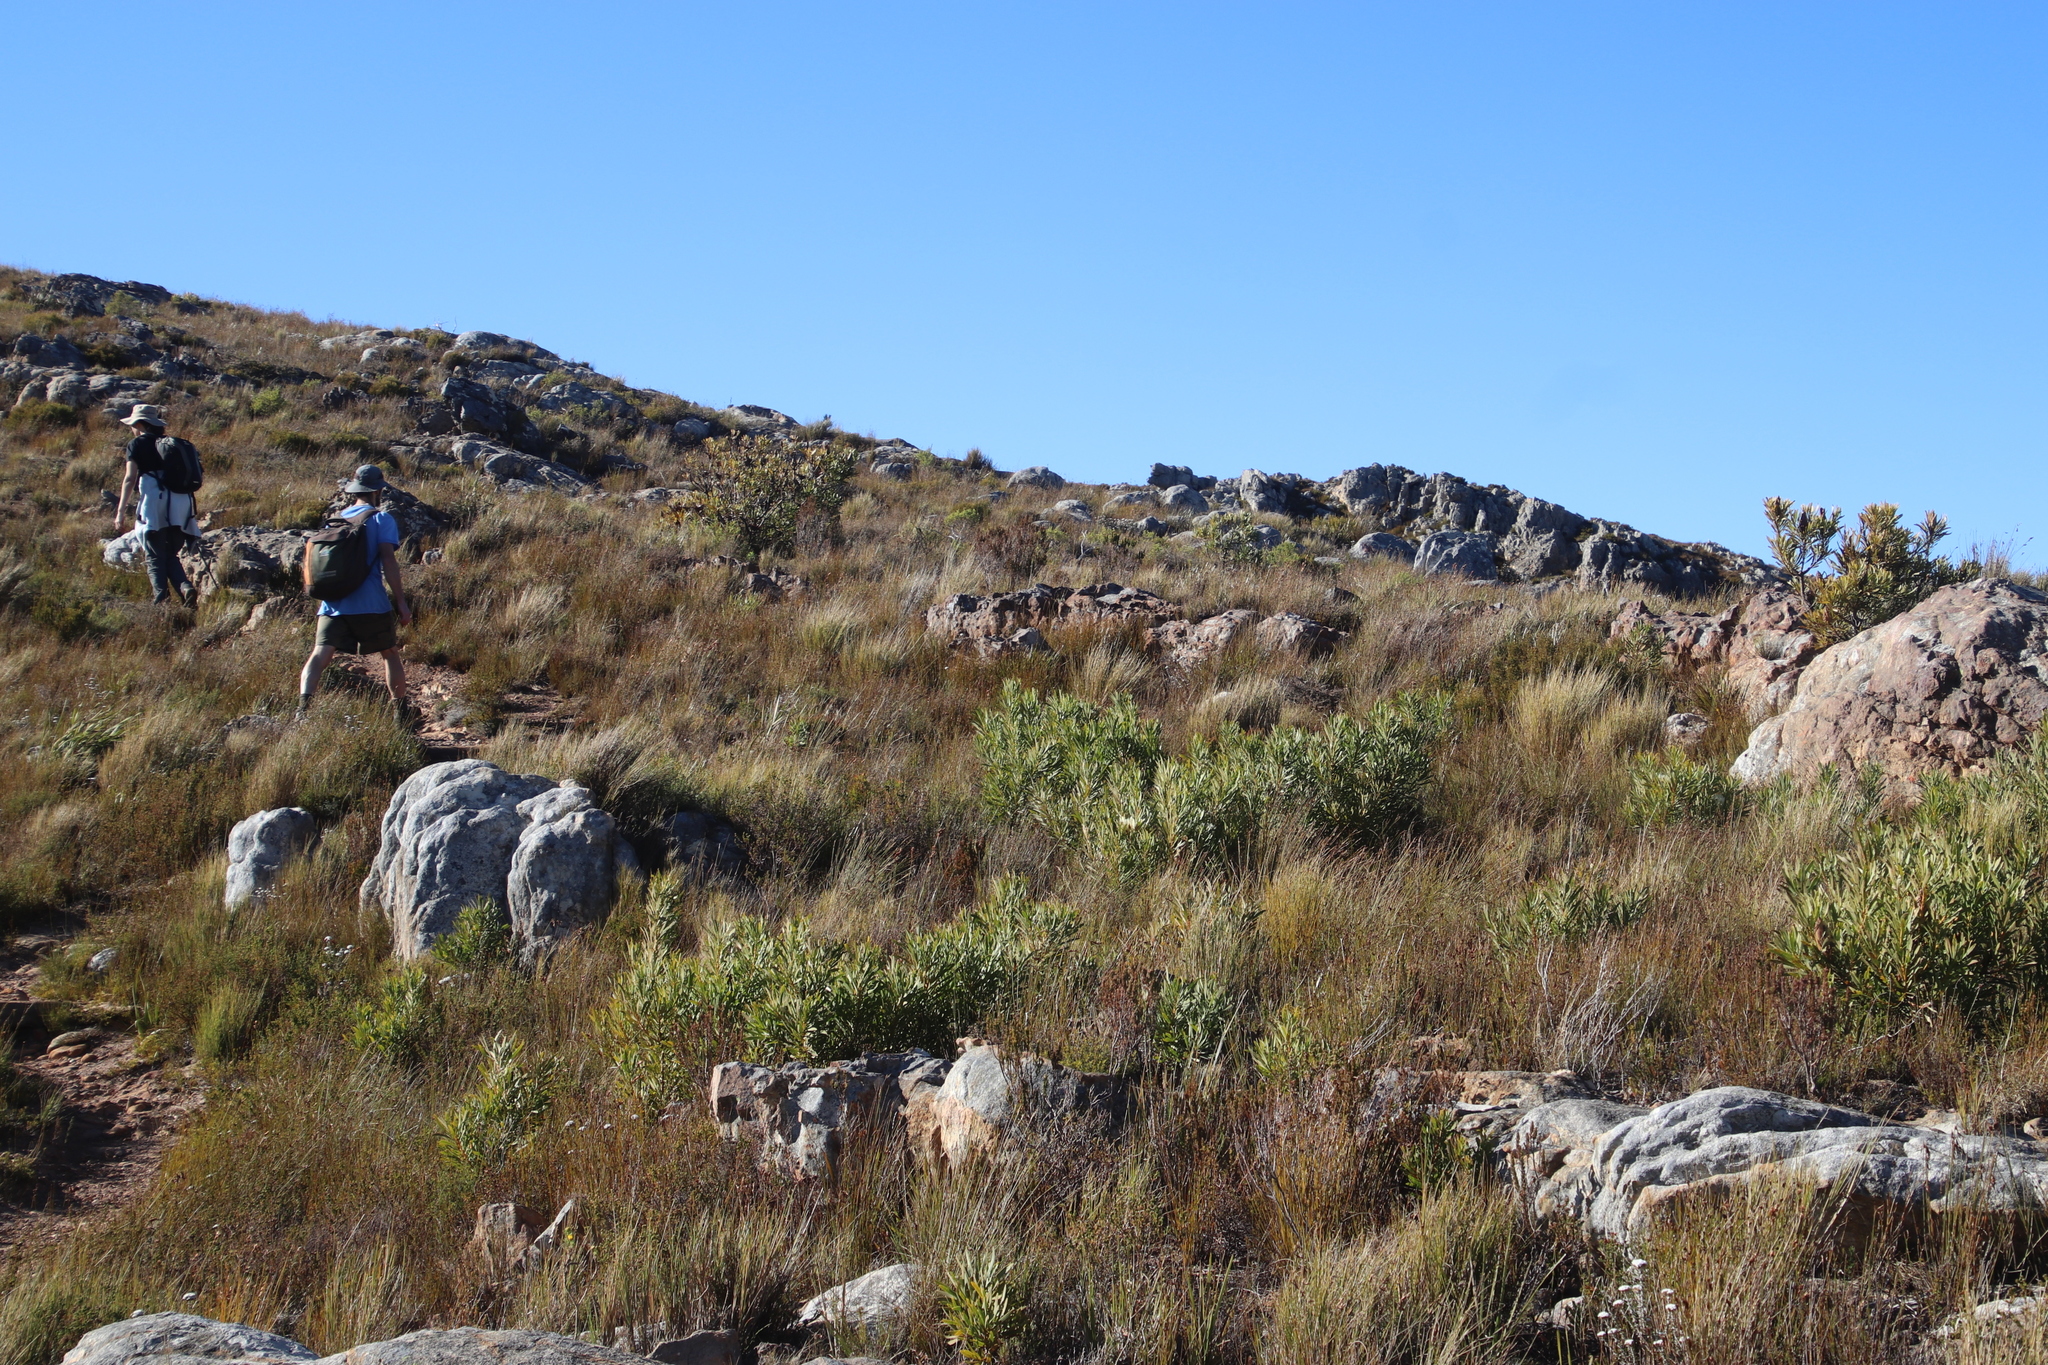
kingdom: Plantae
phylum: Tracheophyta
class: Magnoliopsida
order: Proteales
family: Proteaceae
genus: Protea
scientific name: Protea repens
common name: Sugarbush
